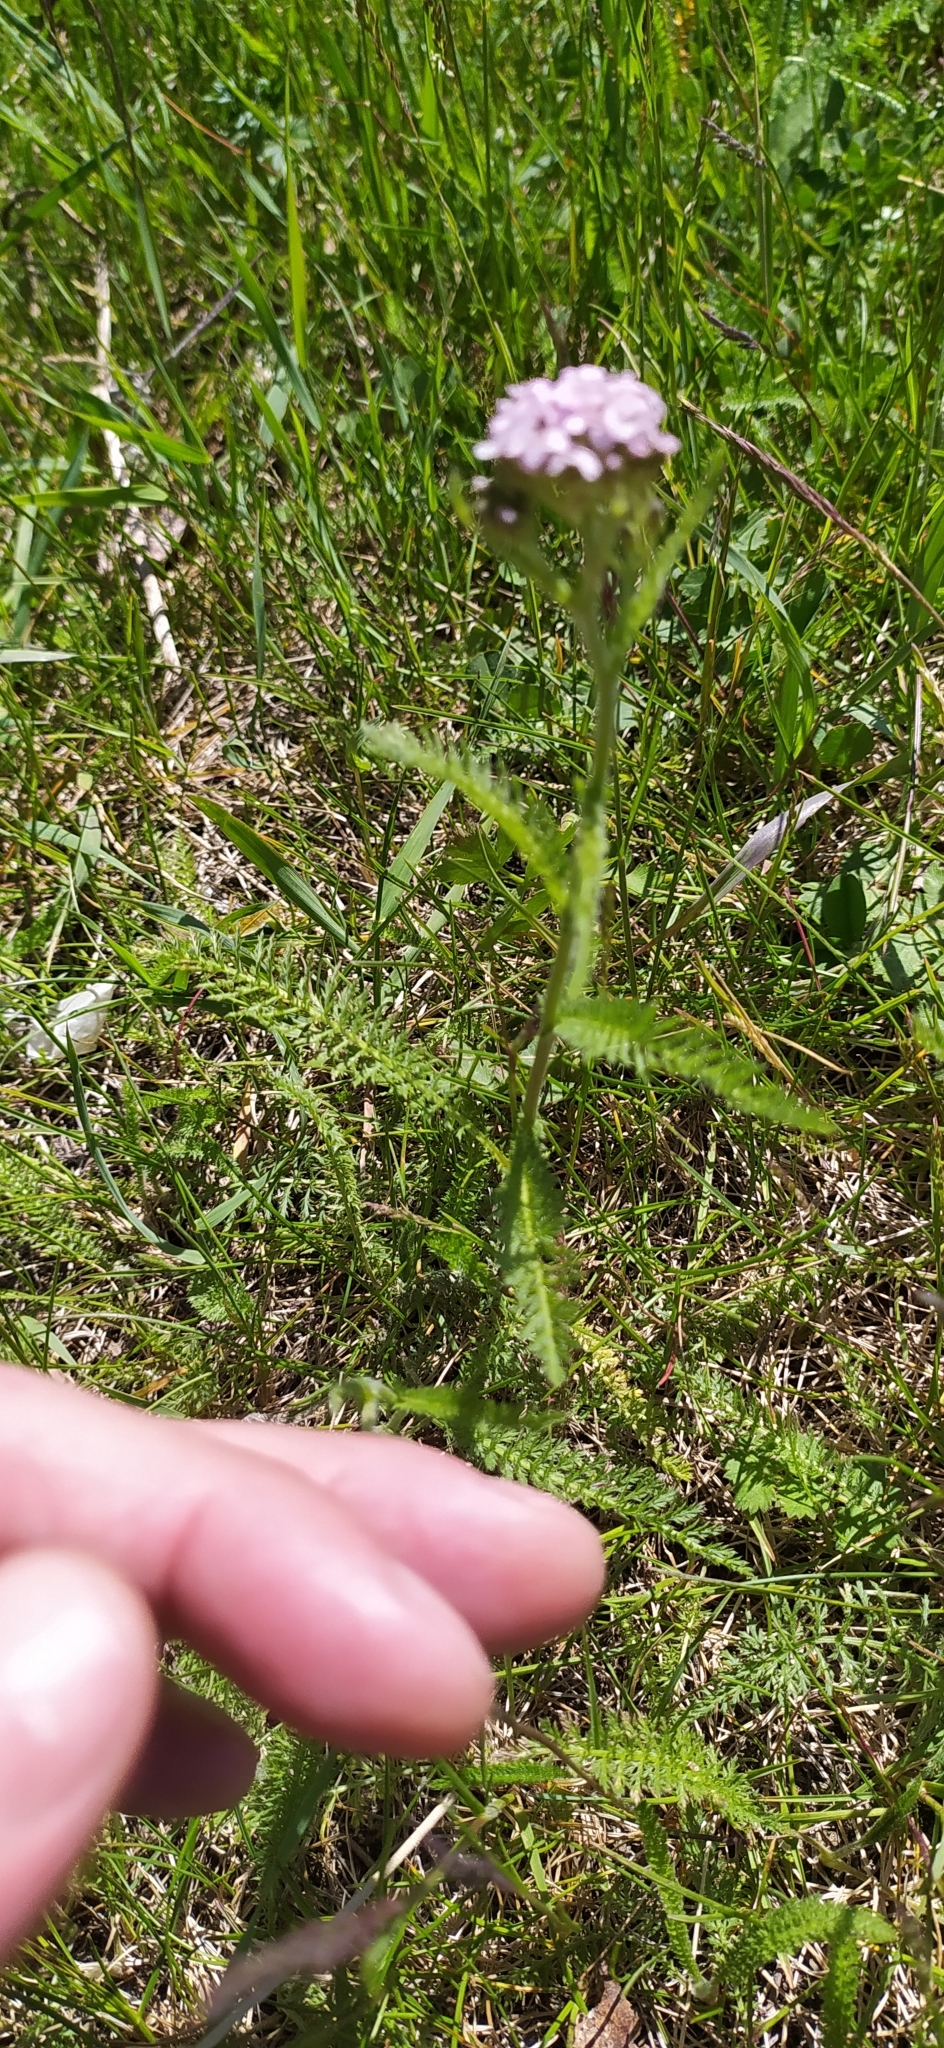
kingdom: Plantae
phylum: Tracheophyta
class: Magnoliopsida
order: Asterales
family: Asteraceae
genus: Achillea
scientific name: Achillea millefolium
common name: Yarrow
